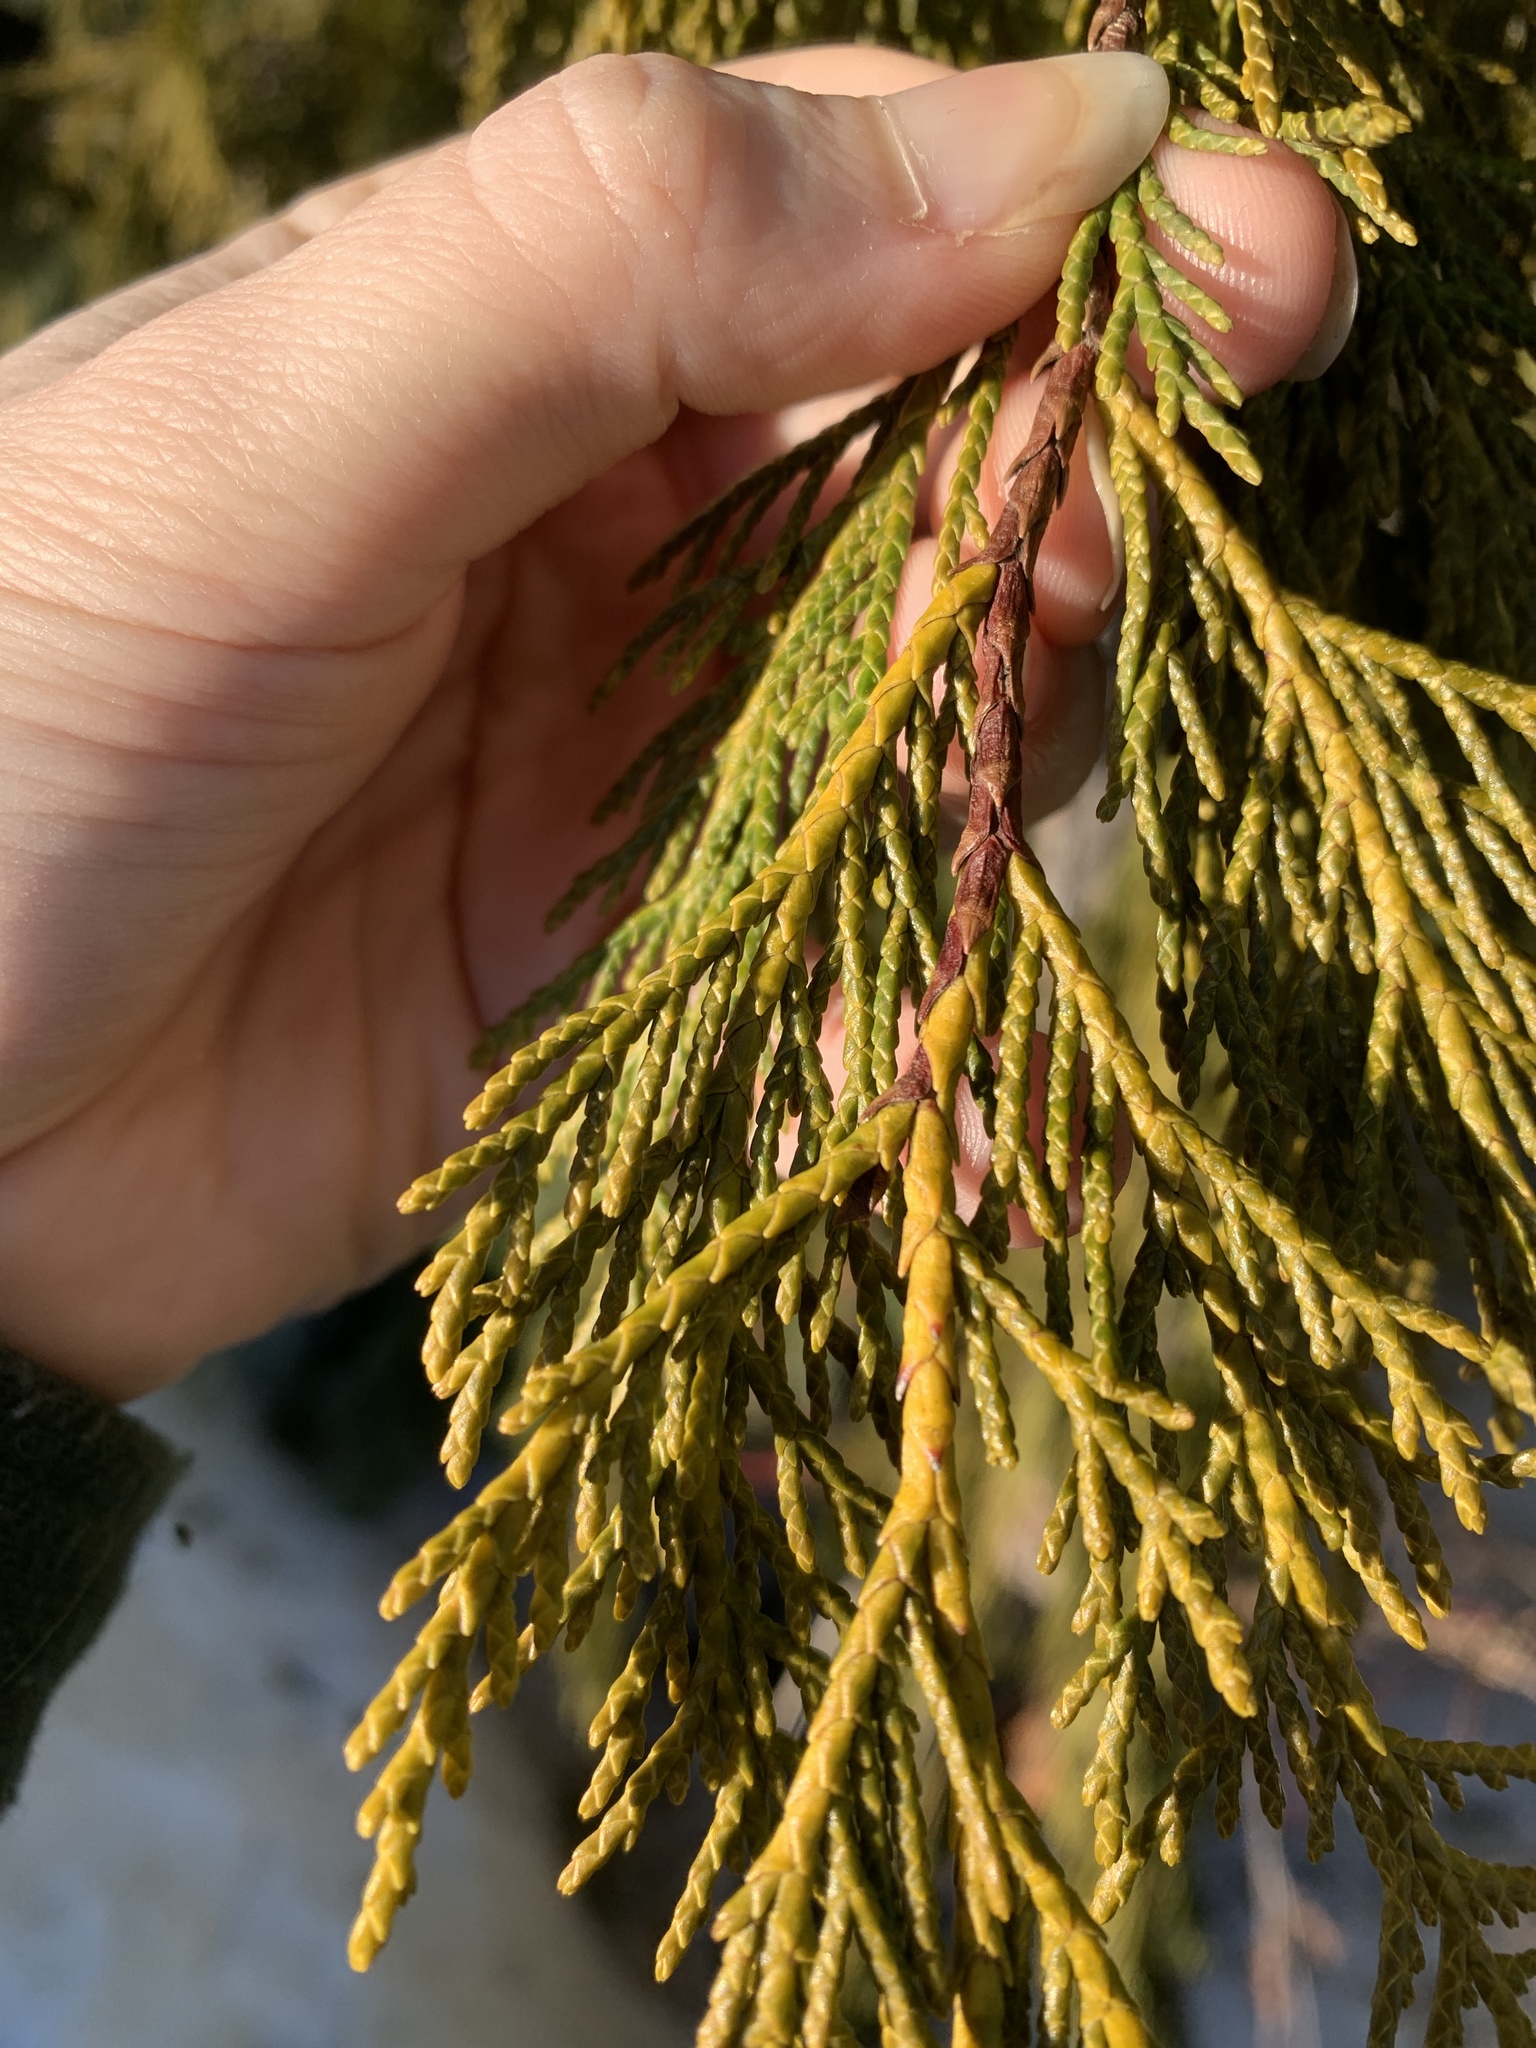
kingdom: Plantae
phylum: Tracheophyta
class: Pinopsida
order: Pinales
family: Cupressaceae
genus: Xanthocyparis
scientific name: Xanthocyparis nootkatensis
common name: Nootka cypress
